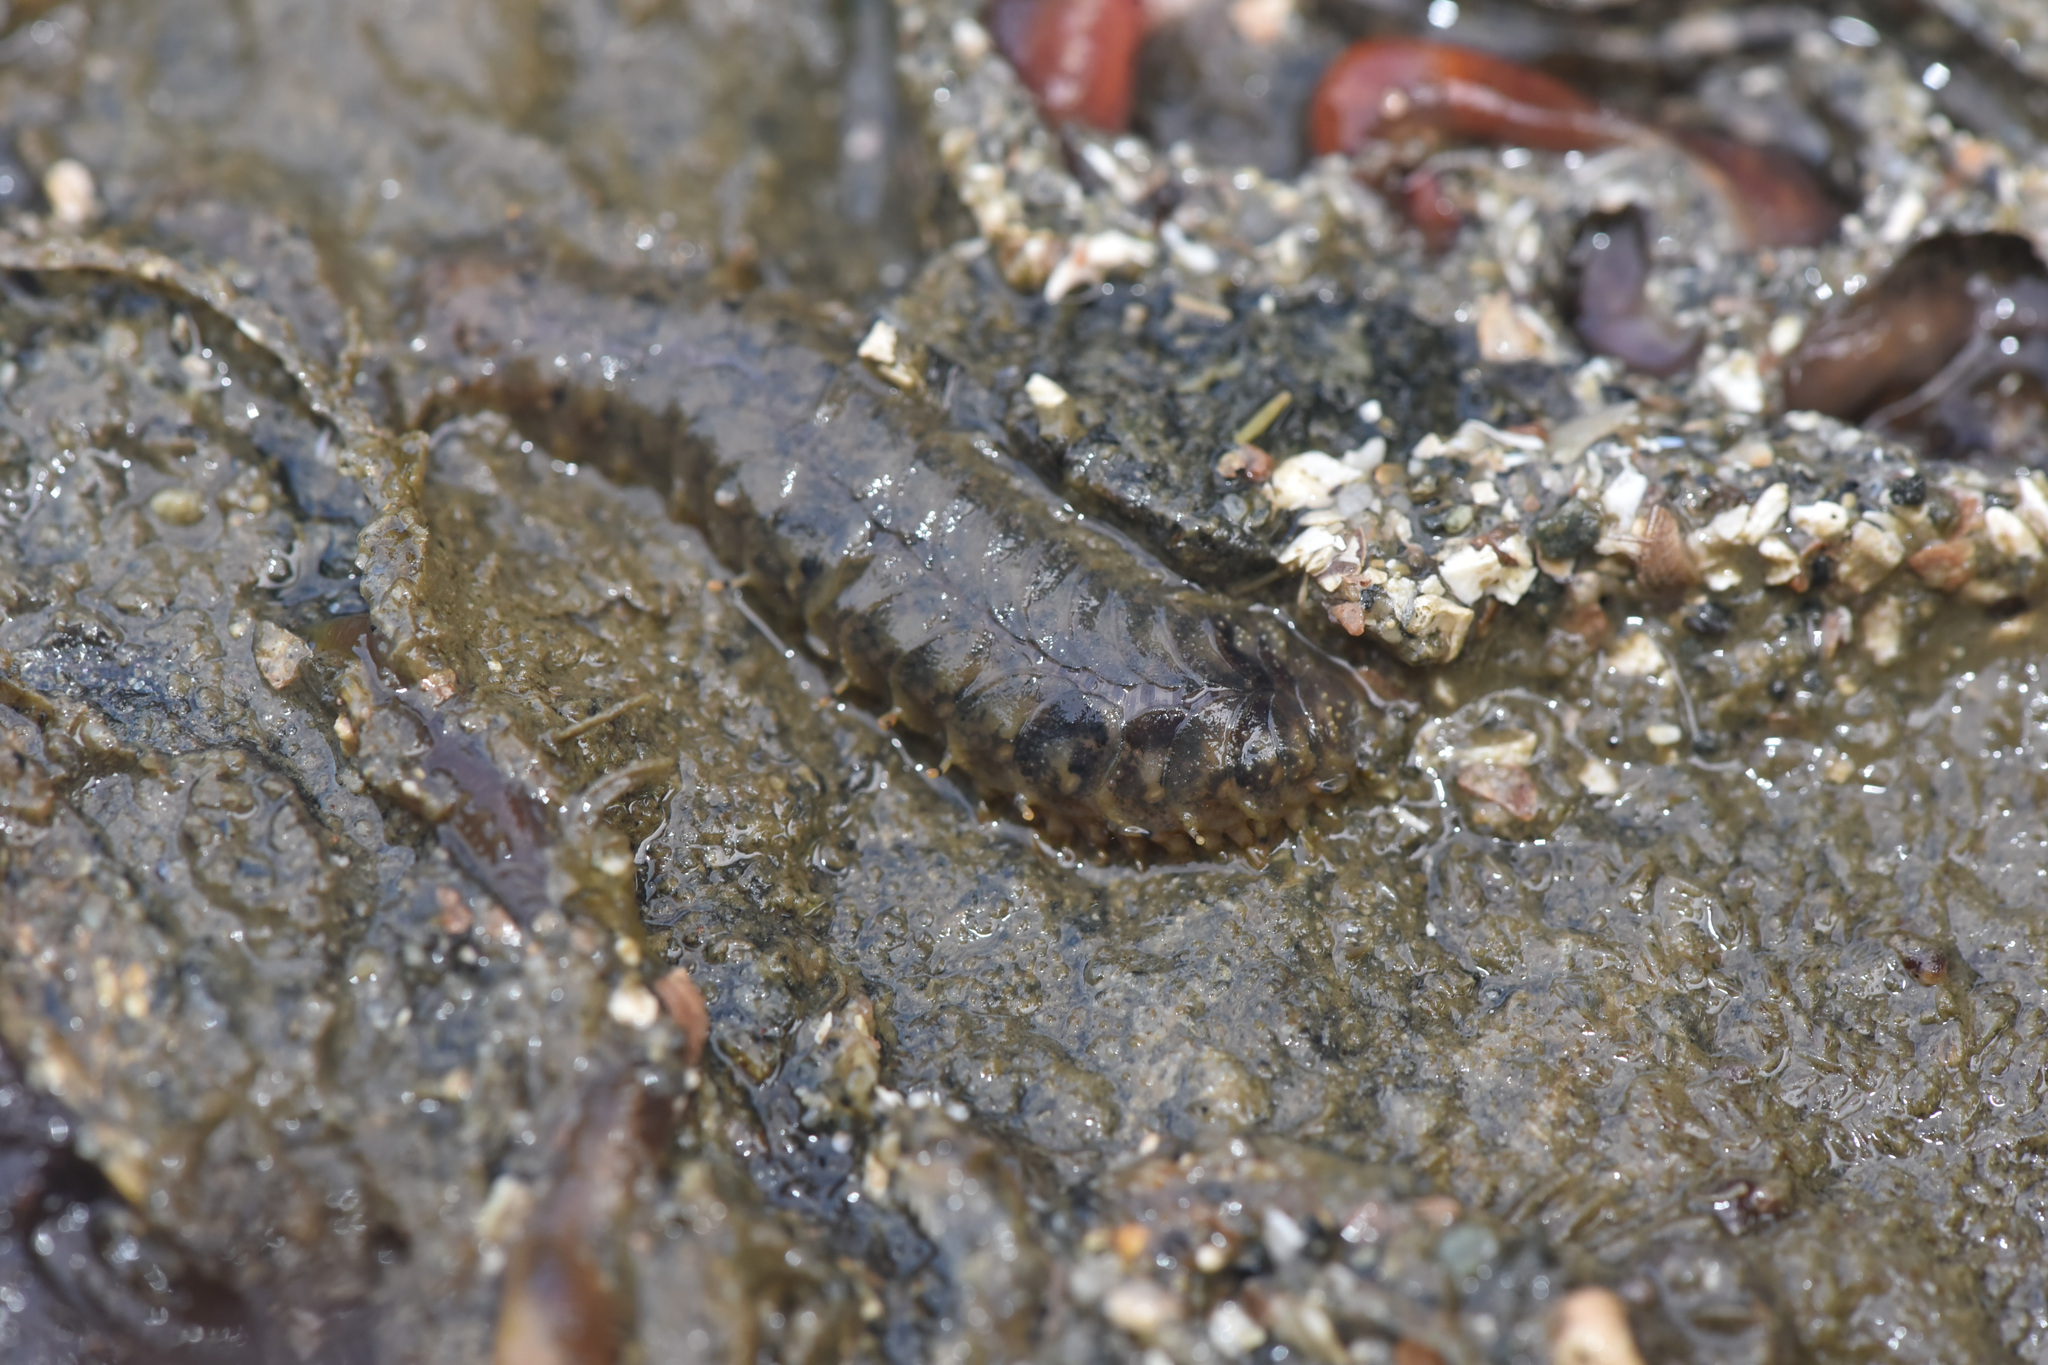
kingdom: Animalia
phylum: Annelida
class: Polychaeta
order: Phyllodocida
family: Polynoidae
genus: Halosydna
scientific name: Halosydna brevisetosa
